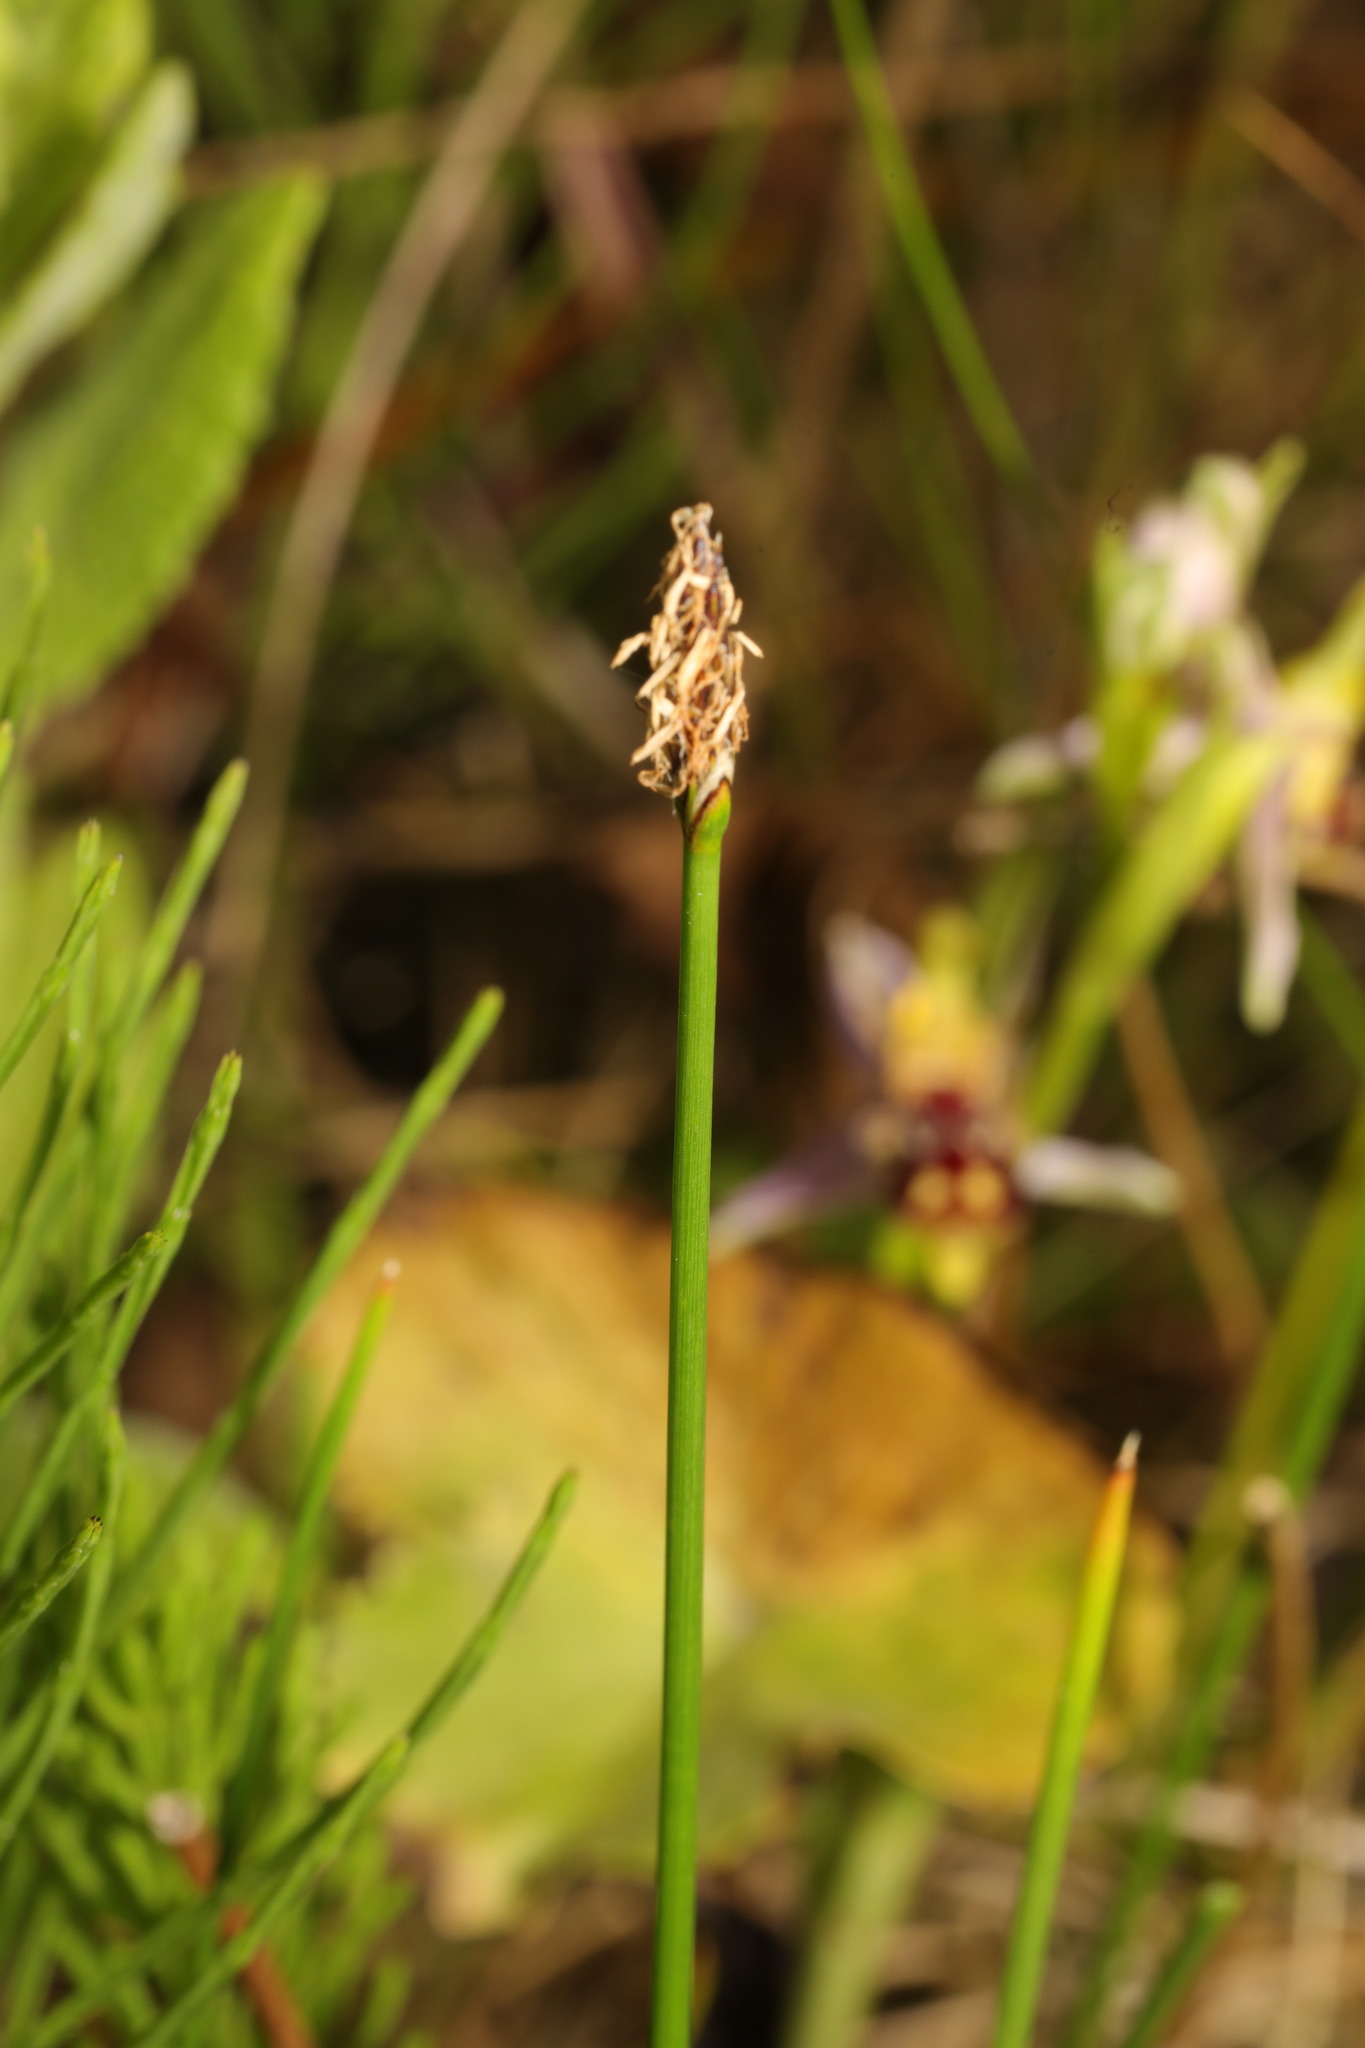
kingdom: Plantae
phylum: Tracheophyta
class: Liliopsida
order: Poales
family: Cyperaceae
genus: Eleocharis
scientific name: Eleocharis palustris
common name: Common spike-rush
